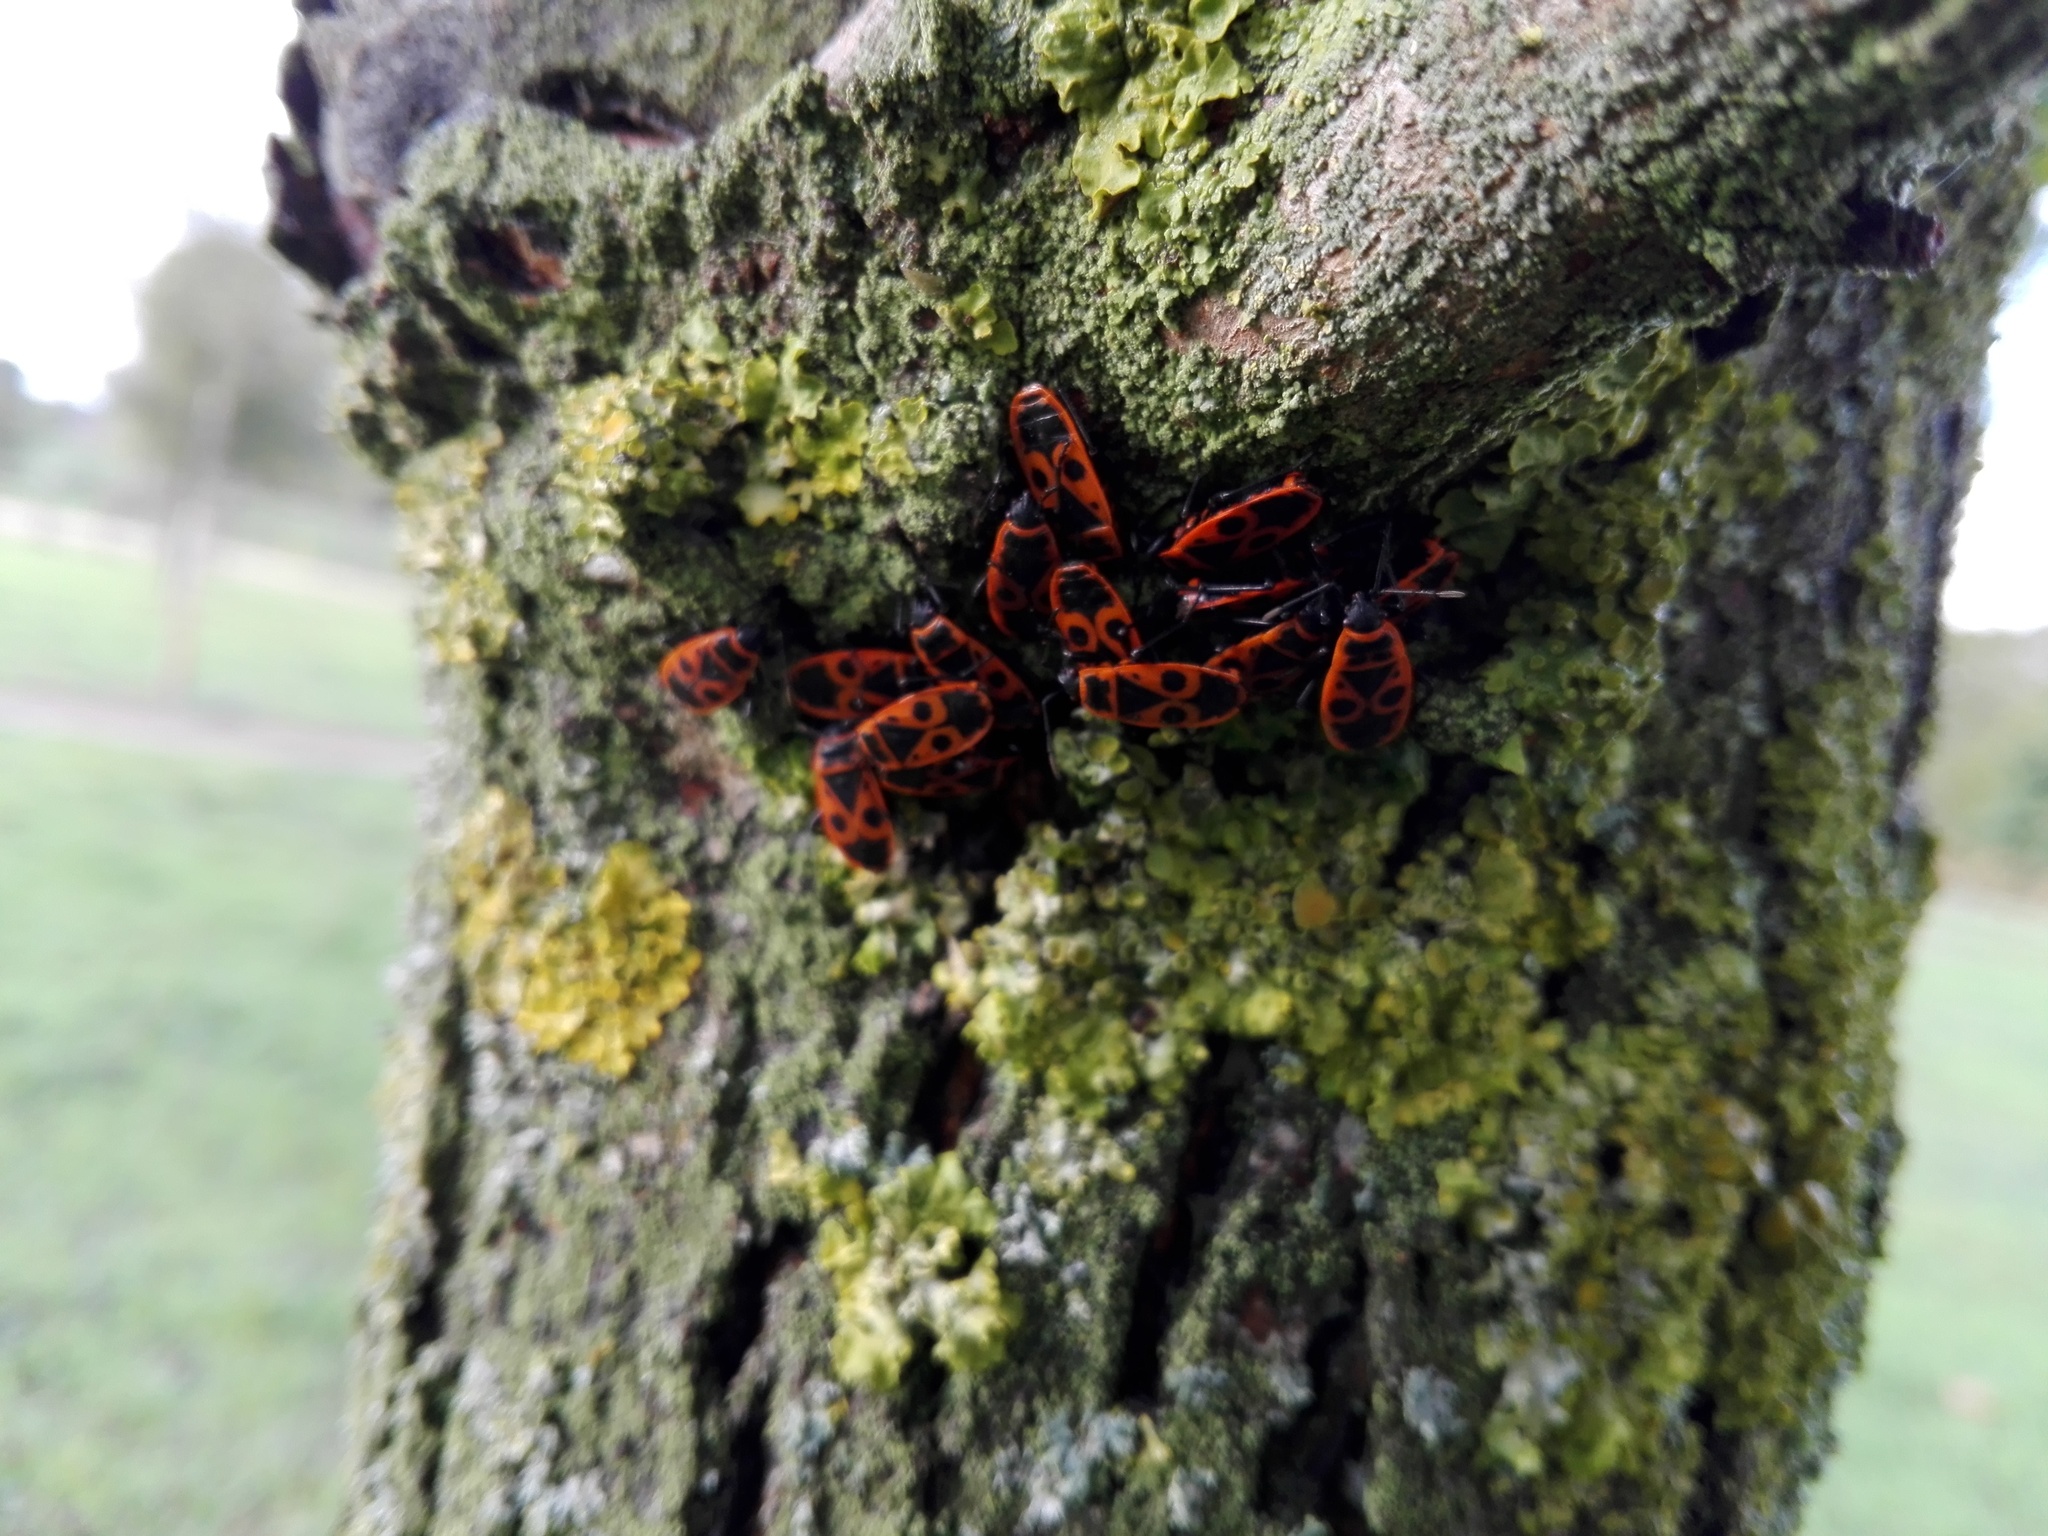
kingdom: Animalia
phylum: Arthropoda
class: Insecta
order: Hemiptera
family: Pyrrhocoridae
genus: Pyrrhocoris
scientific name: Pyrrhocoris apterus
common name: Firebug
